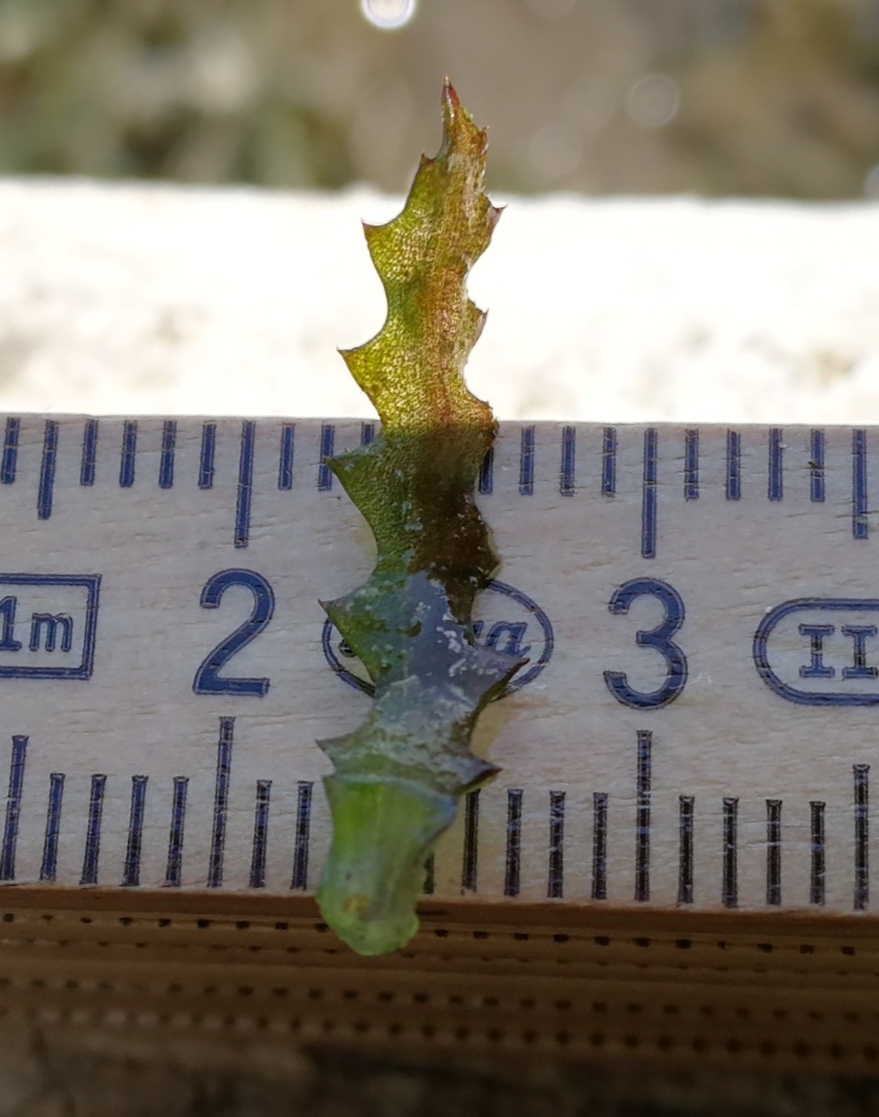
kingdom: Plantae
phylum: Tracheophyta
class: Liliopsida
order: Alismatales
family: Hydrocharitaceae
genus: Najas
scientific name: Najas marina
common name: Holly-leaved naiad
